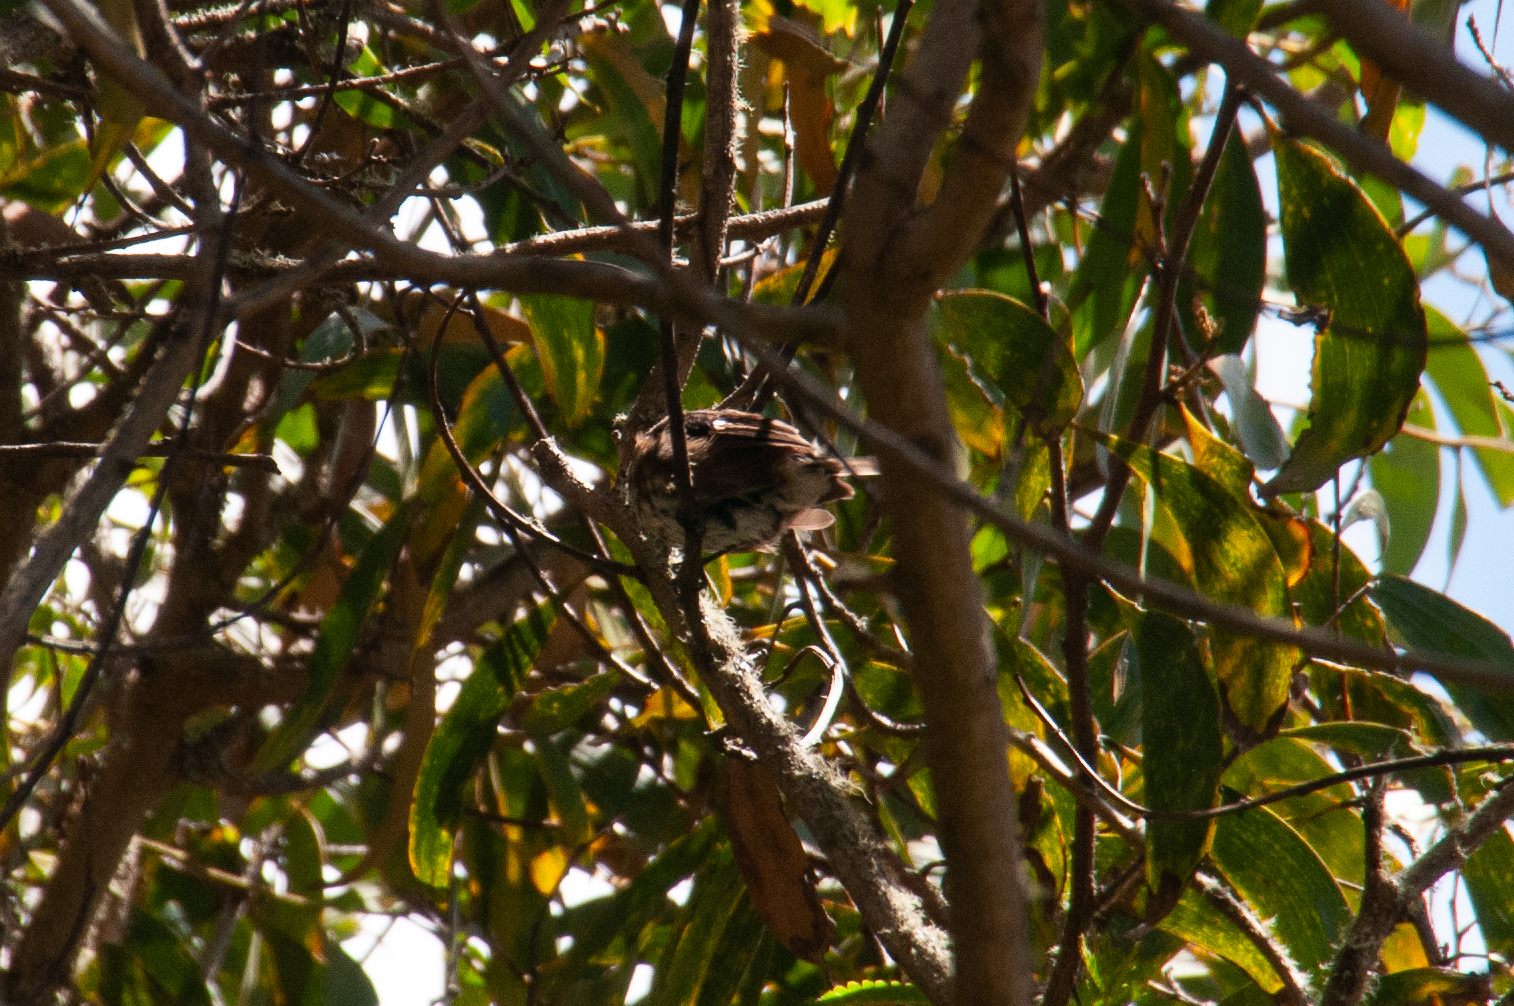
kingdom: Animalia
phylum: Chordata
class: Aves
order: Passeriformes
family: Monarchidae
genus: Chasiempis
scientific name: Chasiempis sandwichensis
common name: Hawaii elepaio
